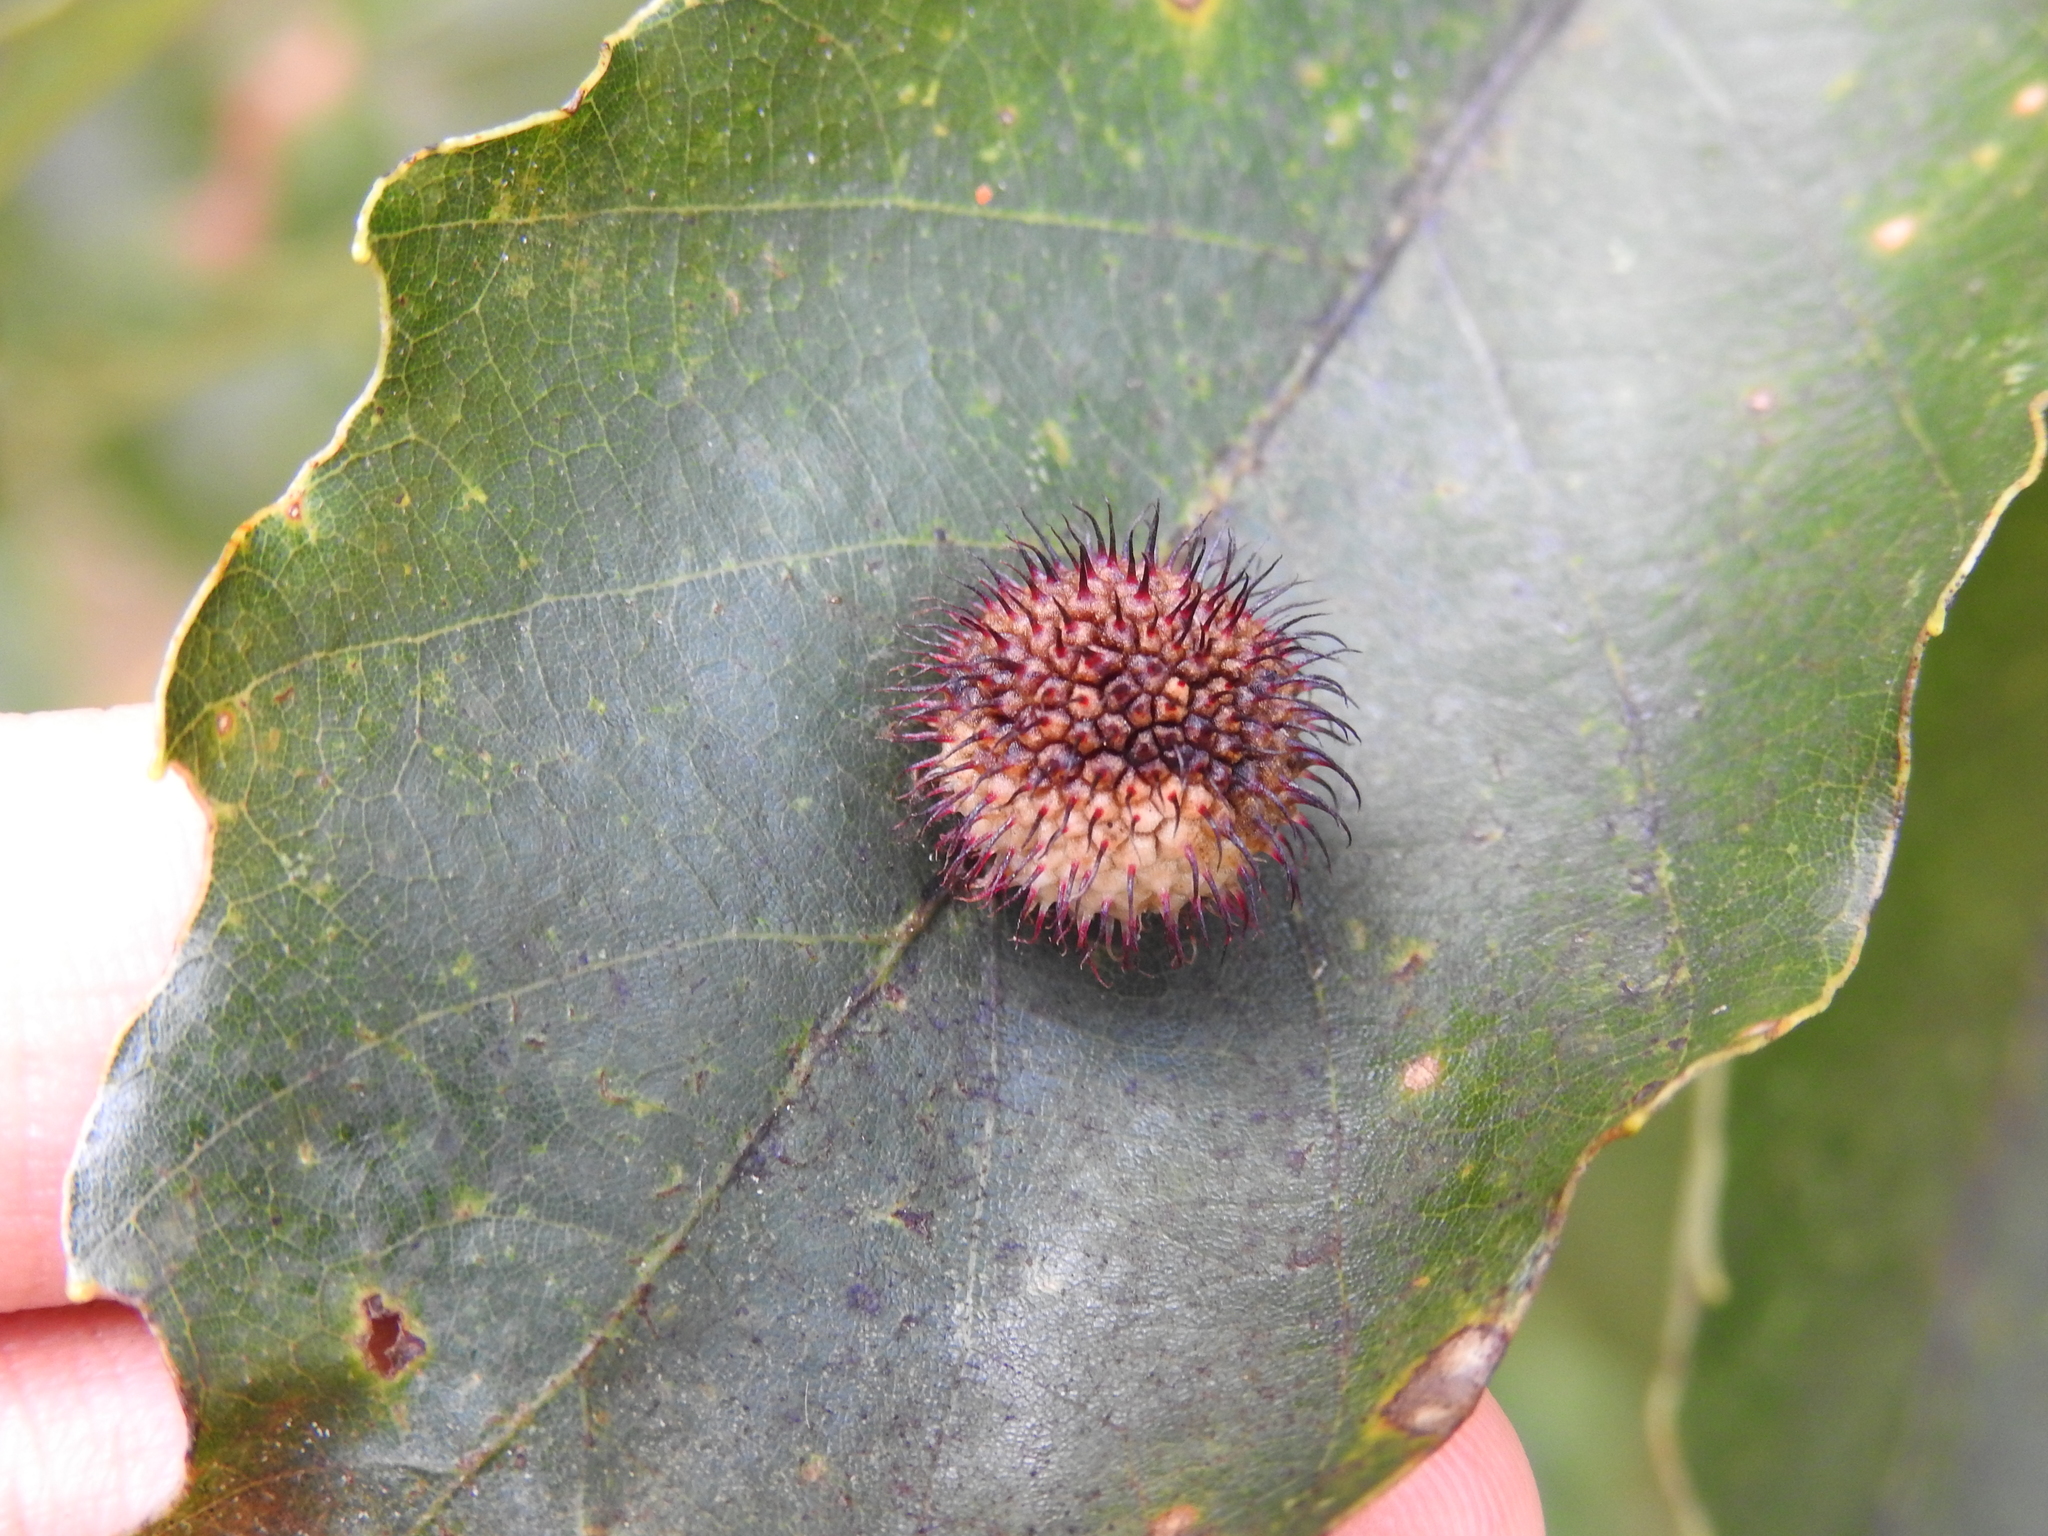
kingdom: Animalia
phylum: Arthropoda
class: Insecta
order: Hymenoptera
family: Cynipidae
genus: Acraspis
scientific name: Acraspis
